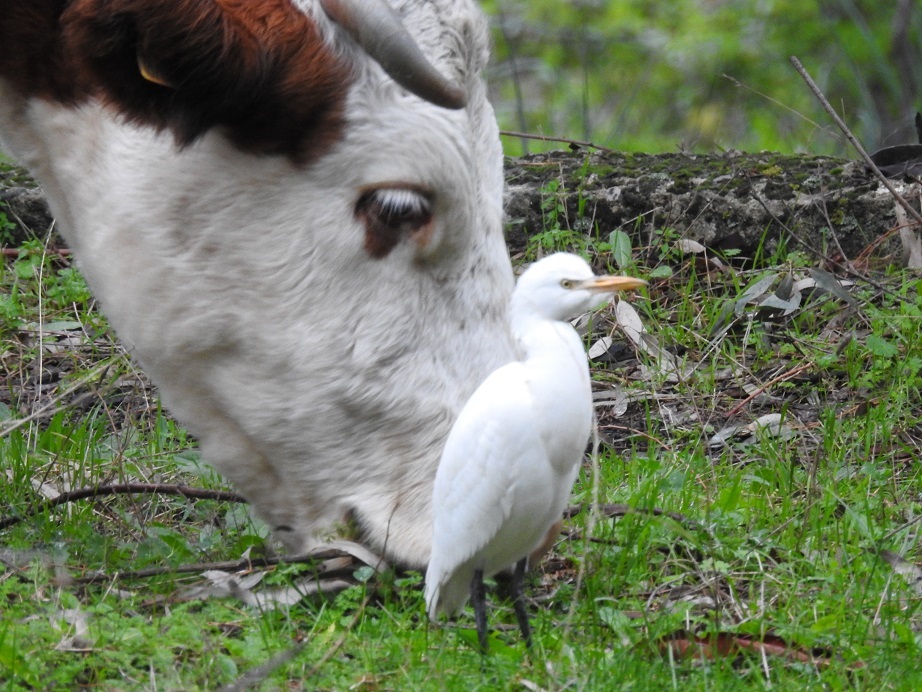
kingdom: Animalia
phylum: Chordata
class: Aves
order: Pelecaniformes
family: Ardeidae
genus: Bubulcus
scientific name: Bubulcus ibis
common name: Cattle egret
